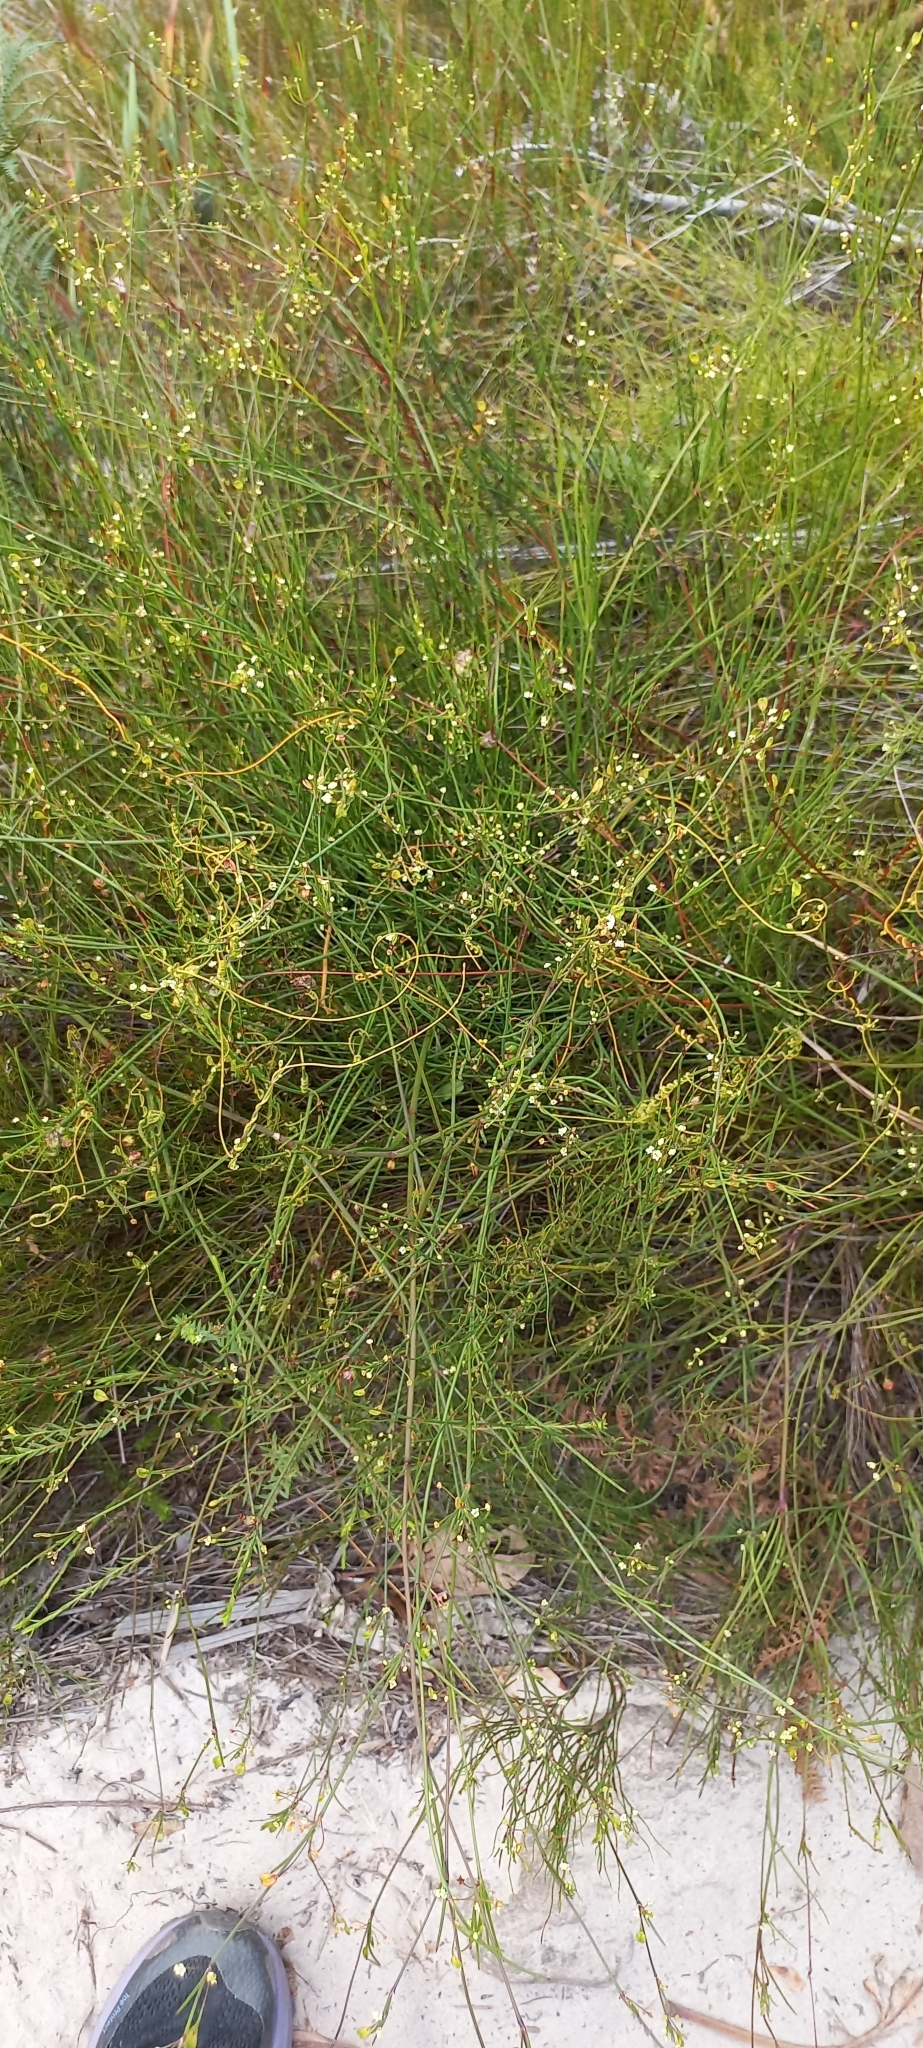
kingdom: Plantae
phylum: Tracheophyta
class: Magnoliopsida
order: Apiales
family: Apiaceae
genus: Centella
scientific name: Centella macrocarpa
